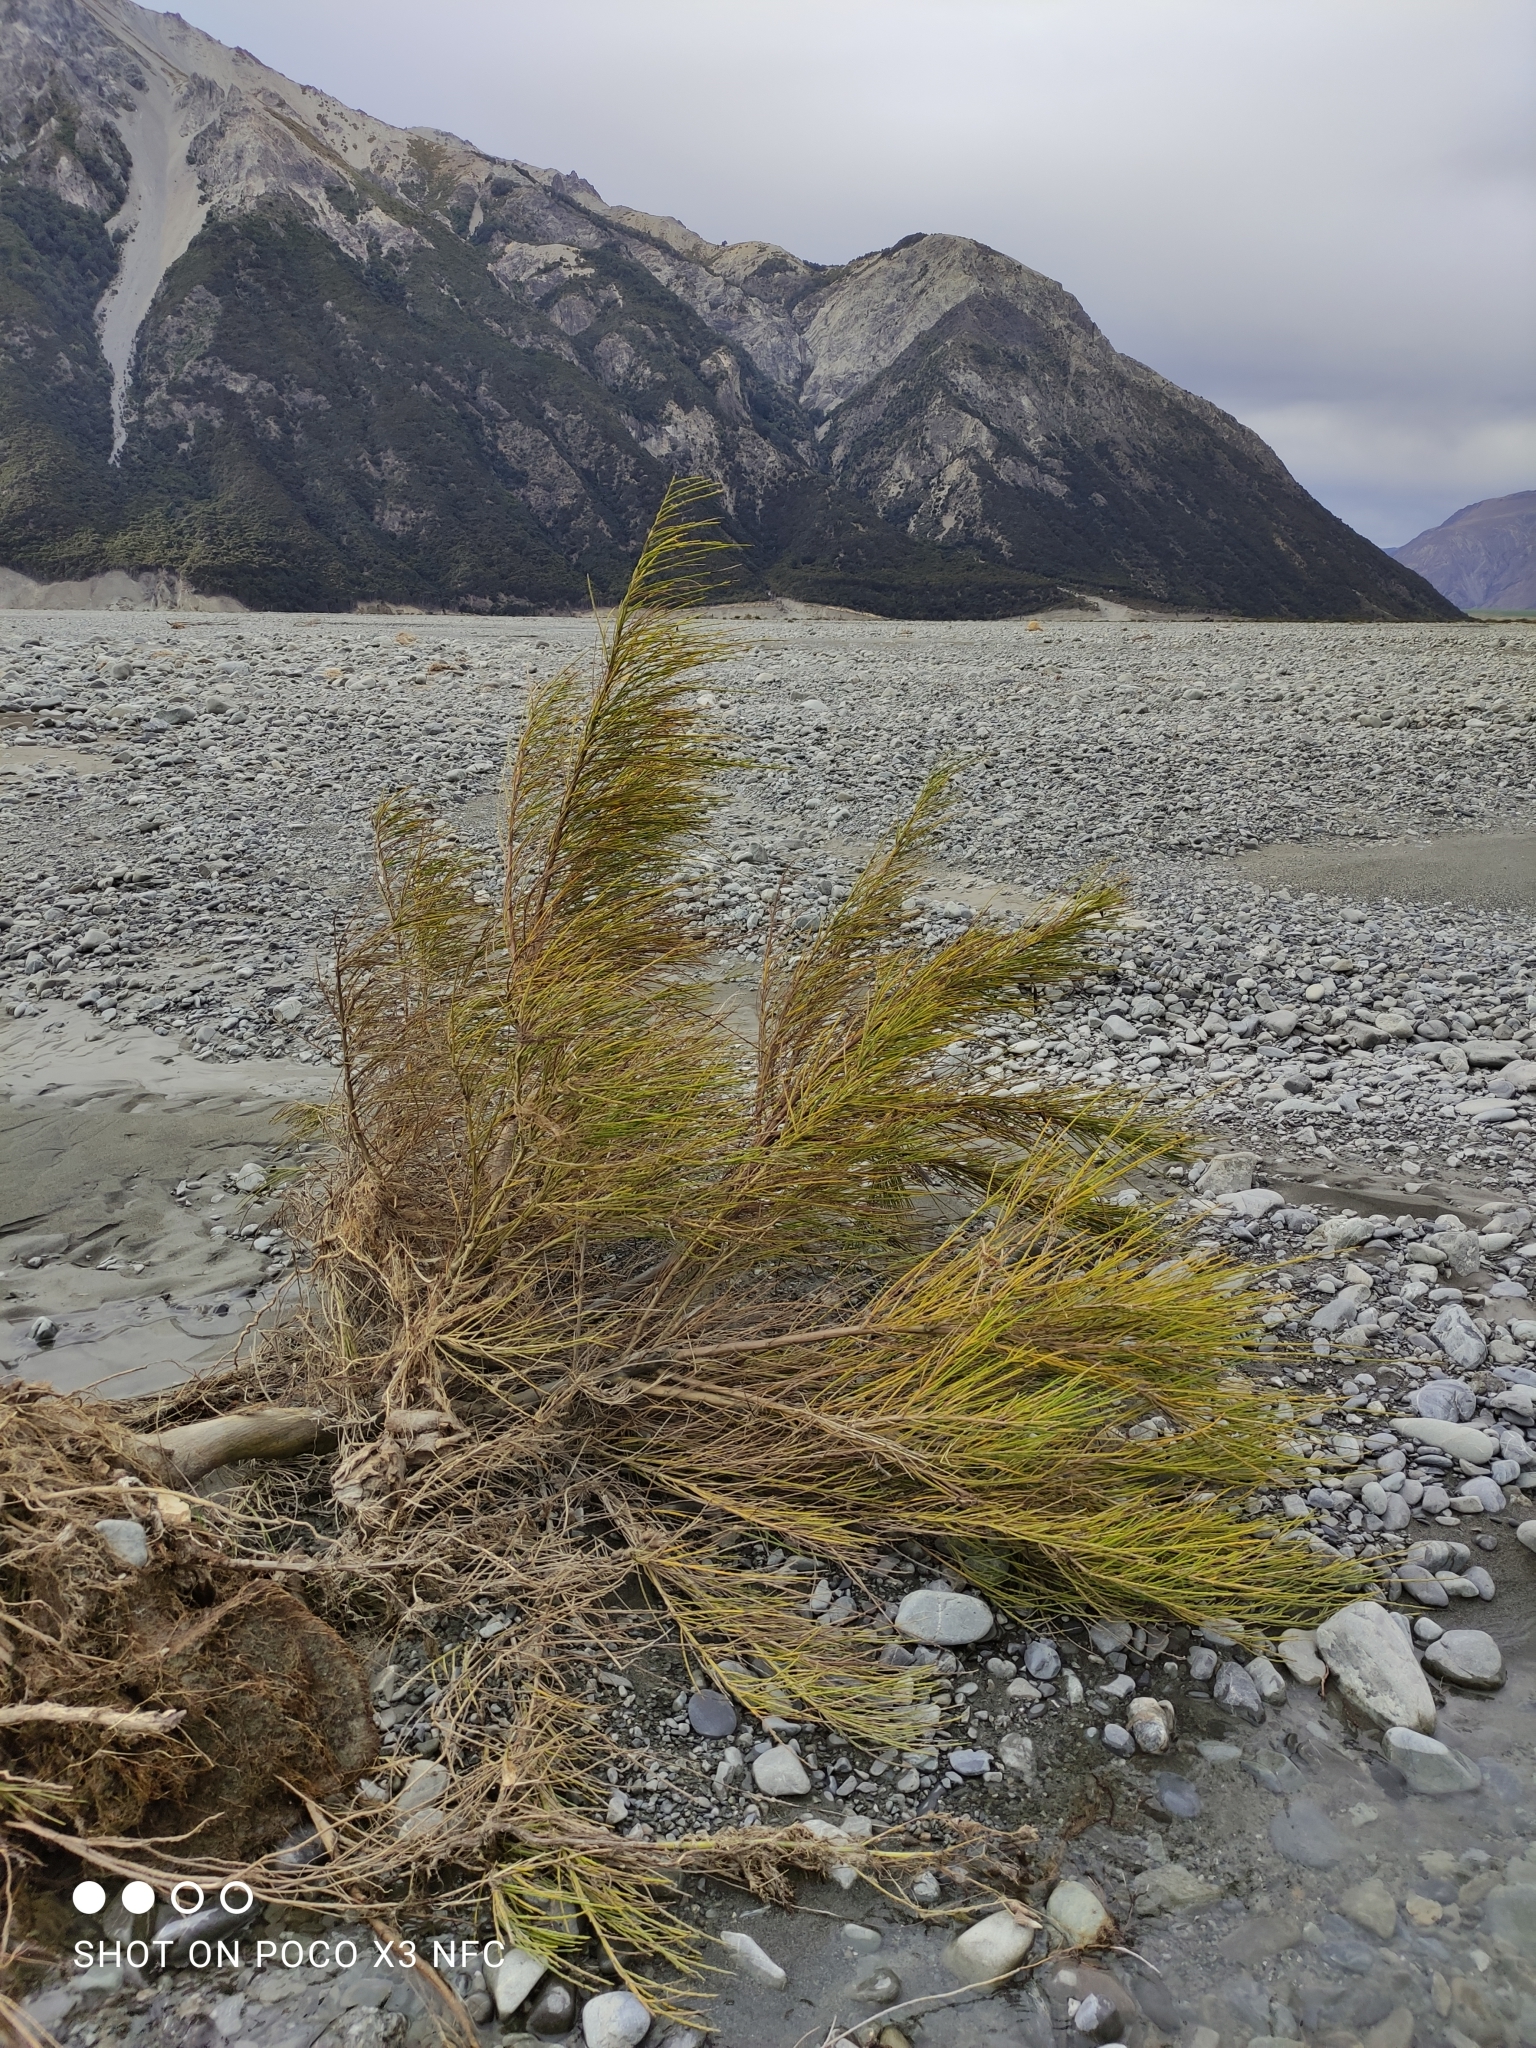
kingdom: Plantae
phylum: Tracheophyta
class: Magnoliopsida
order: Fabales
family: Fabaceae
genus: Cytisus
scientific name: Cytisus scoparius
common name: Scotch broom
